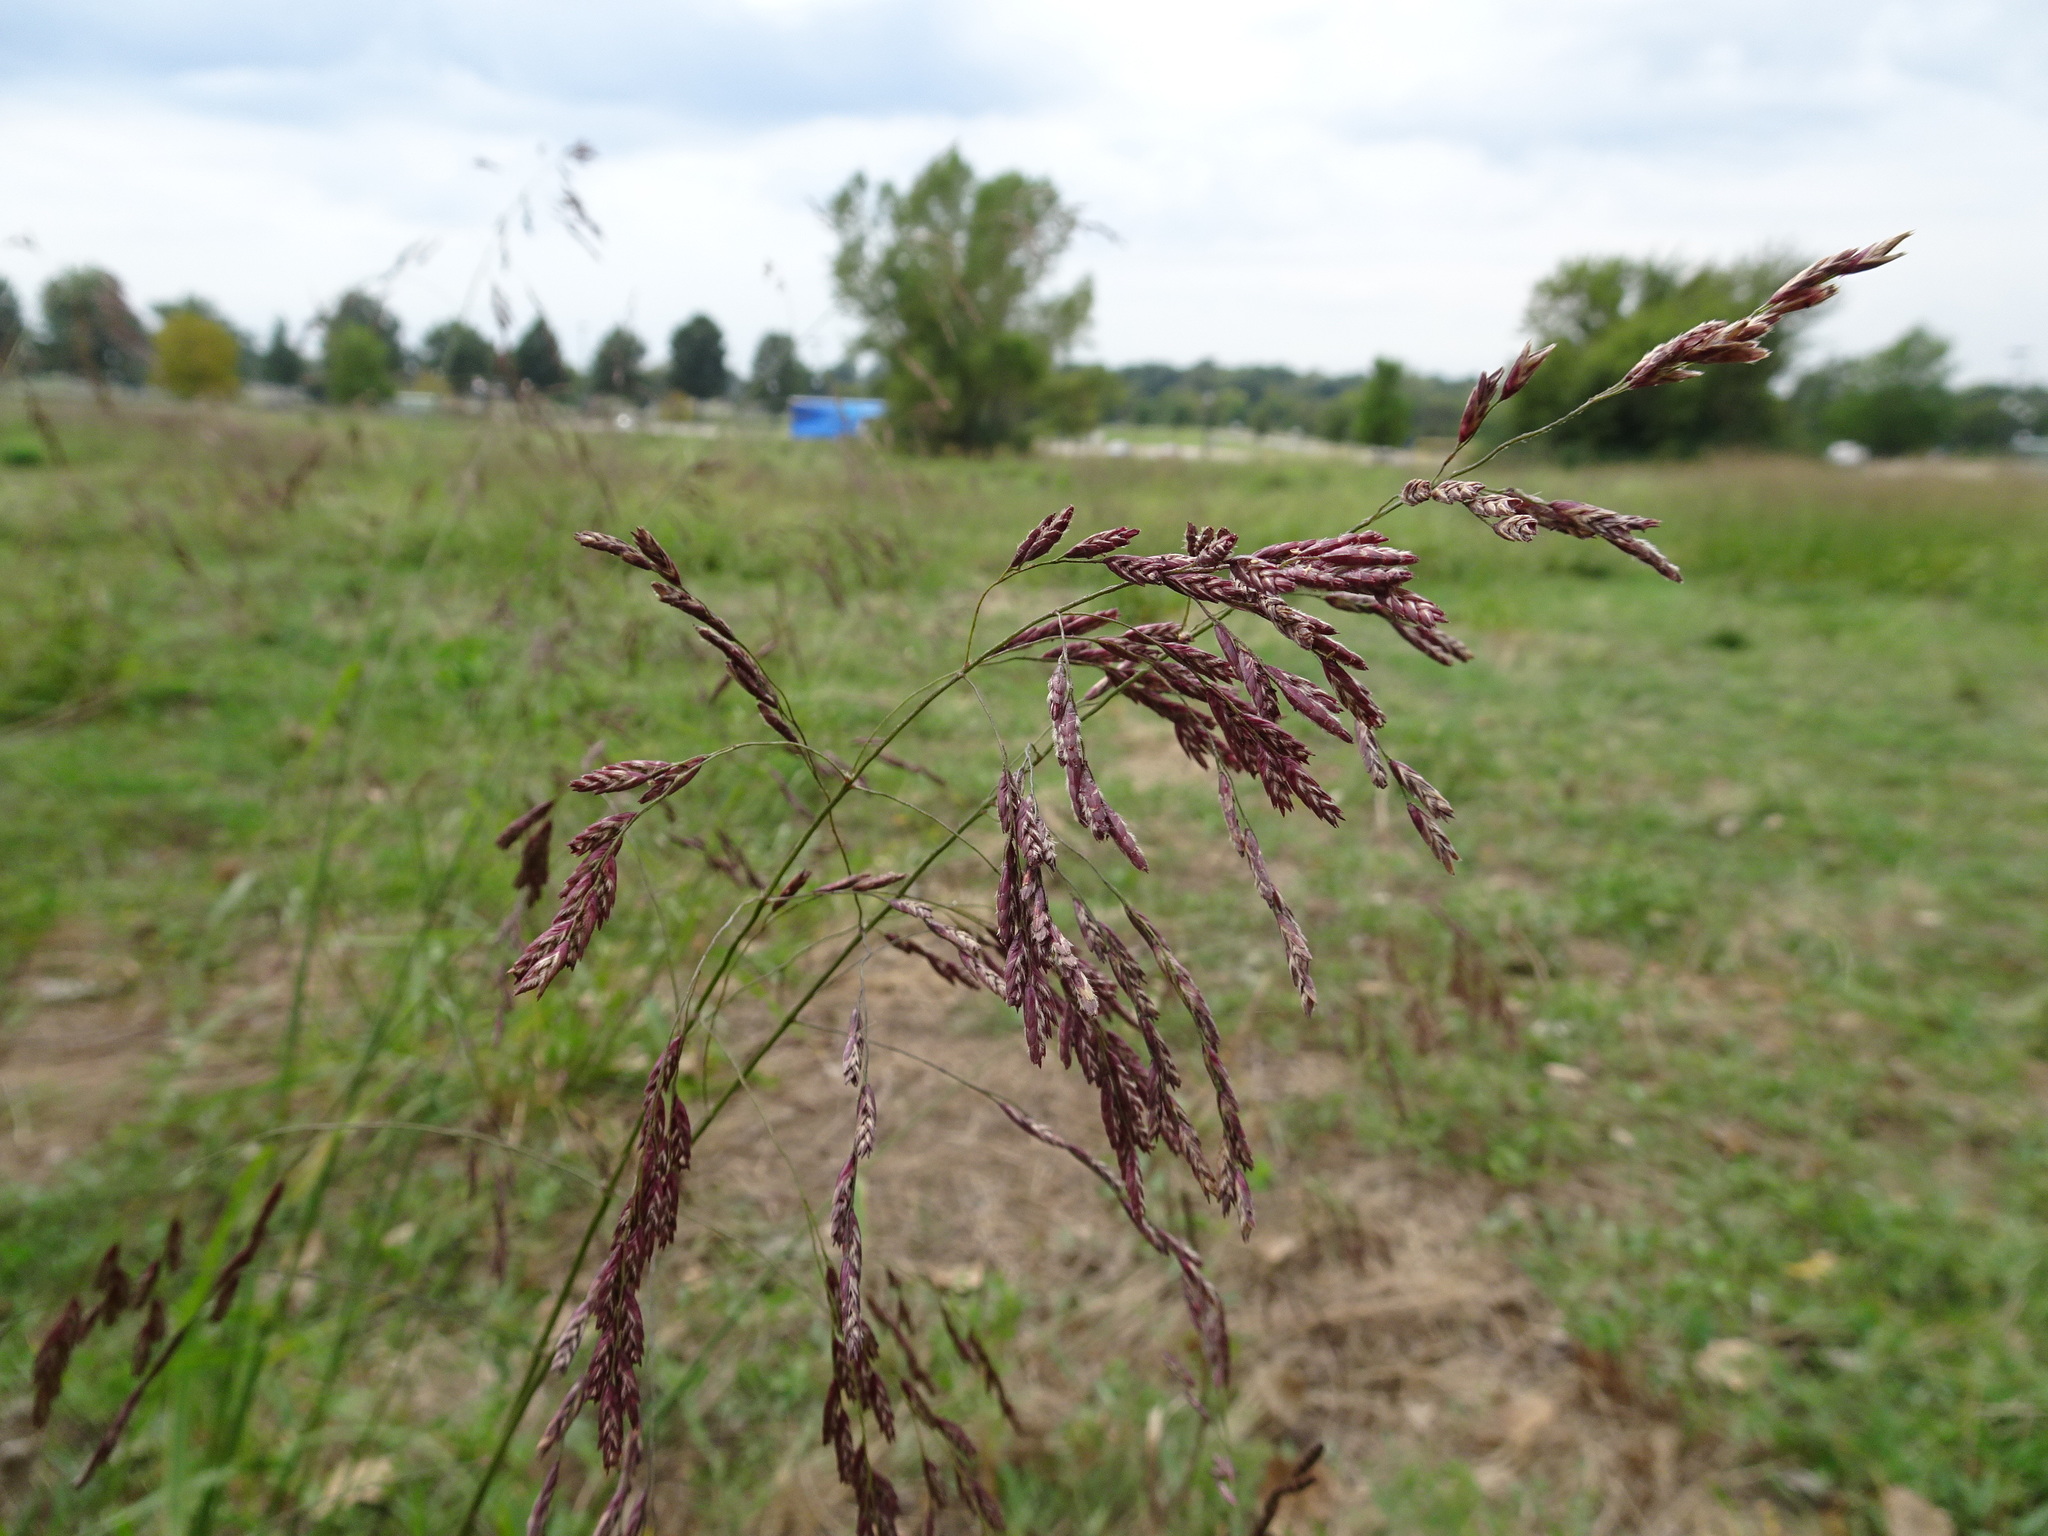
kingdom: Plantae
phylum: Tracheophyta
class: Liliopsida
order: Poales
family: Poaceae
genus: Tridens
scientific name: Tridens flavus
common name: Purpletop
